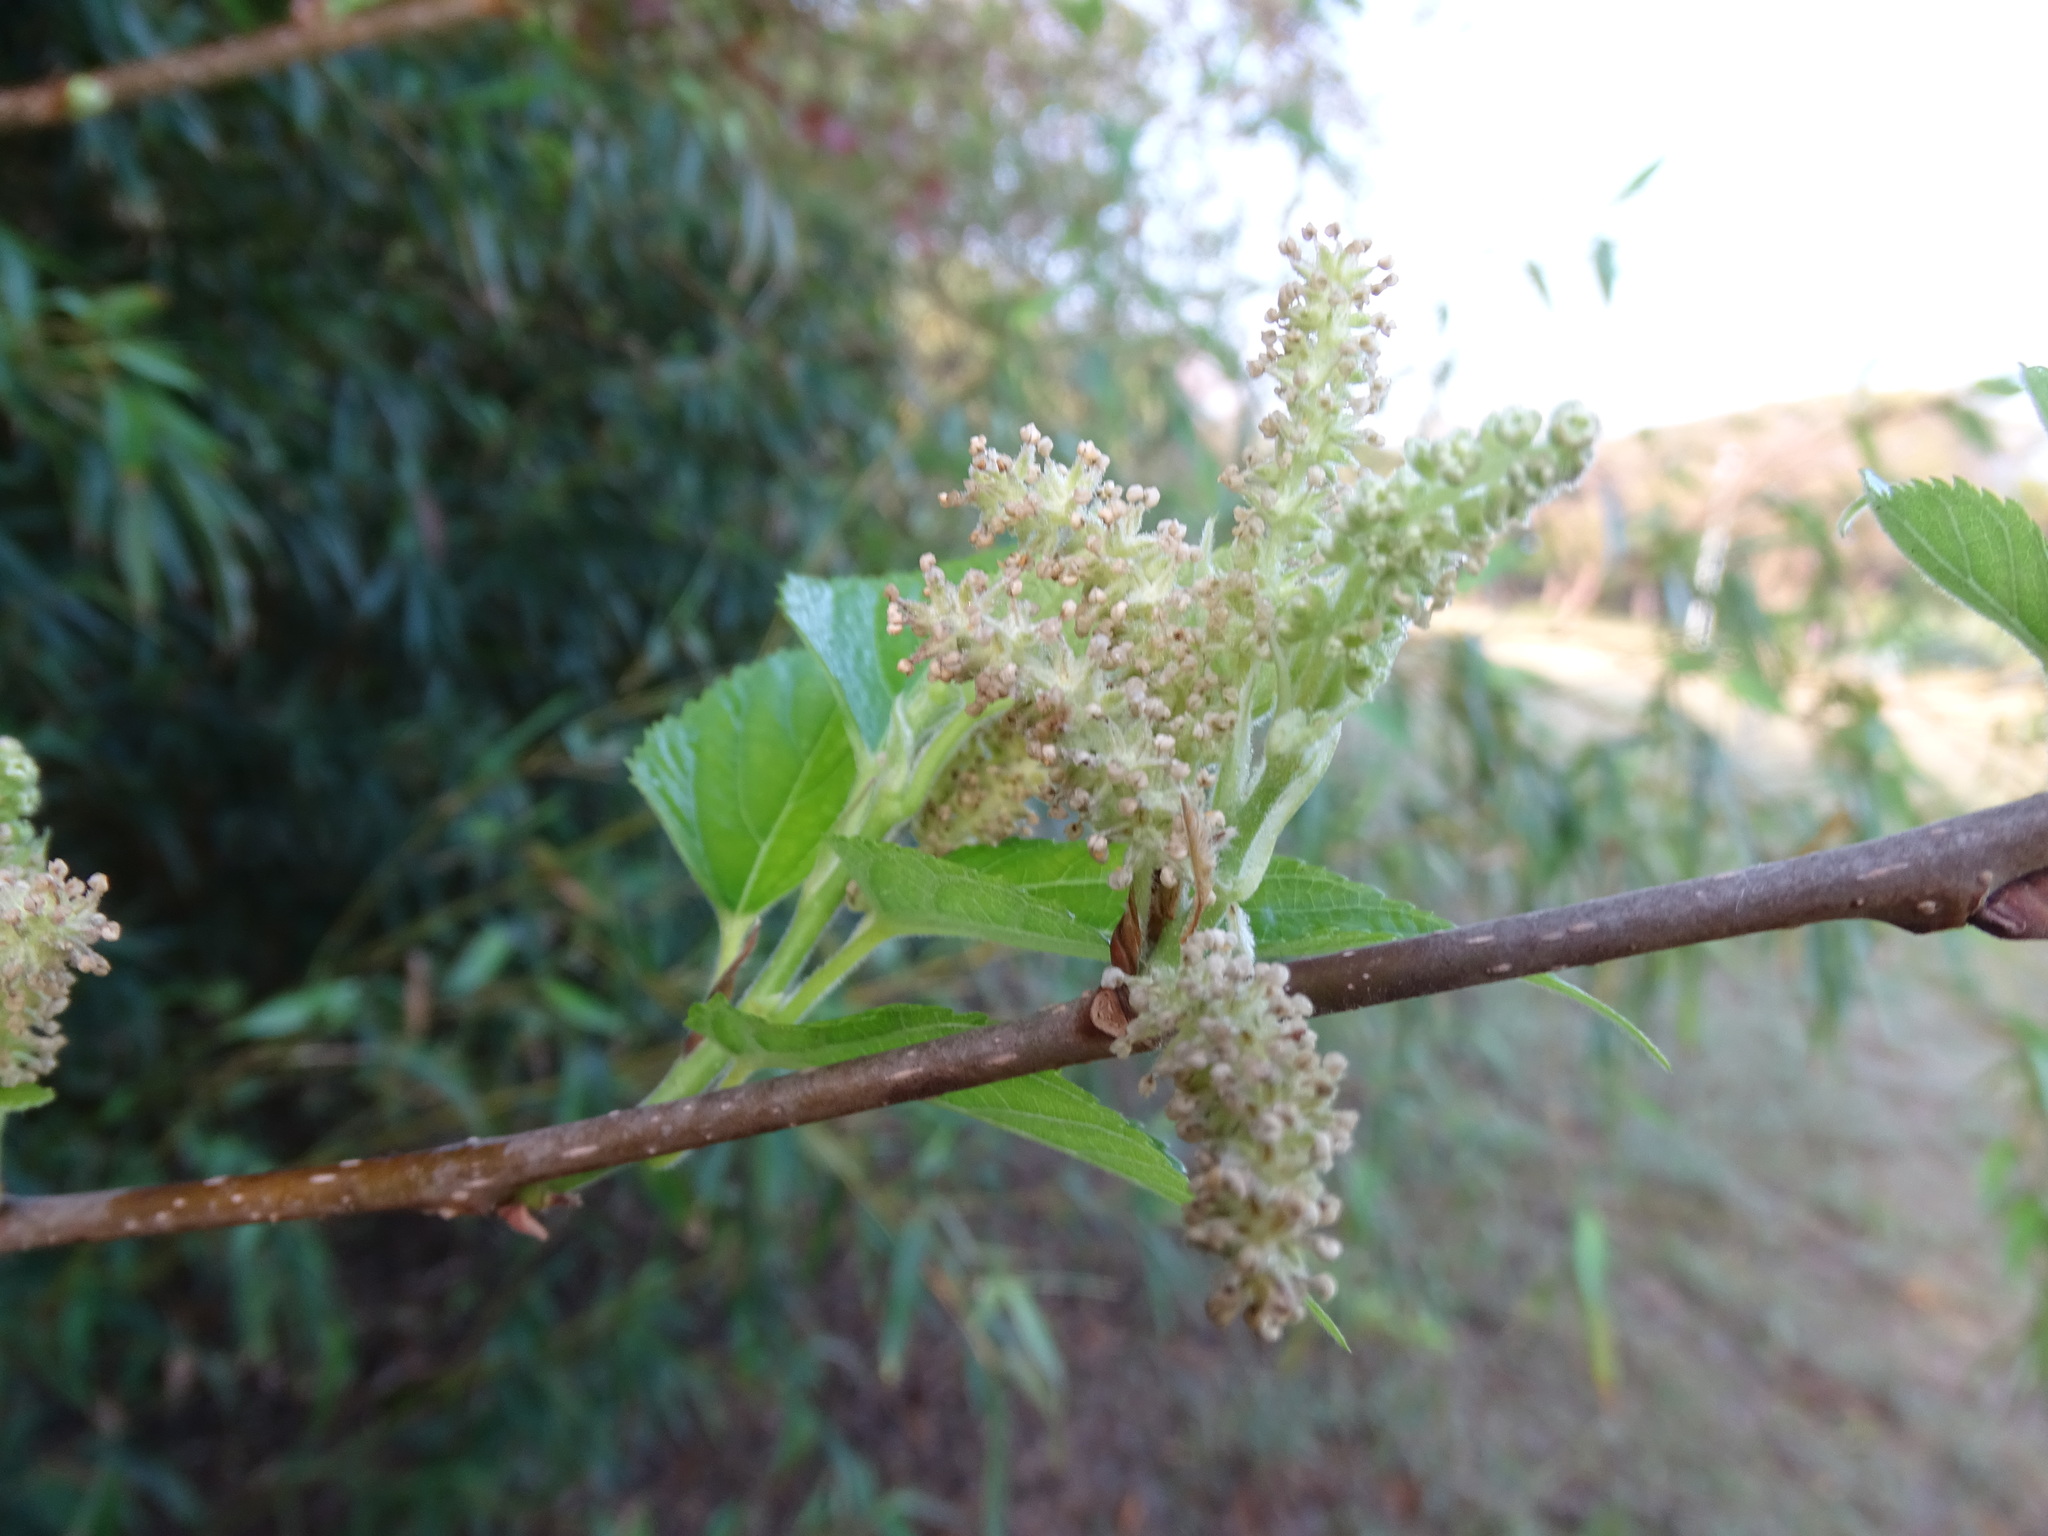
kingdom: Plantae
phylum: Tracheophyta
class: Magnoliopsida
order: Rosales
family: Moraceae
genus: Morus
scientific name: Morus indica
